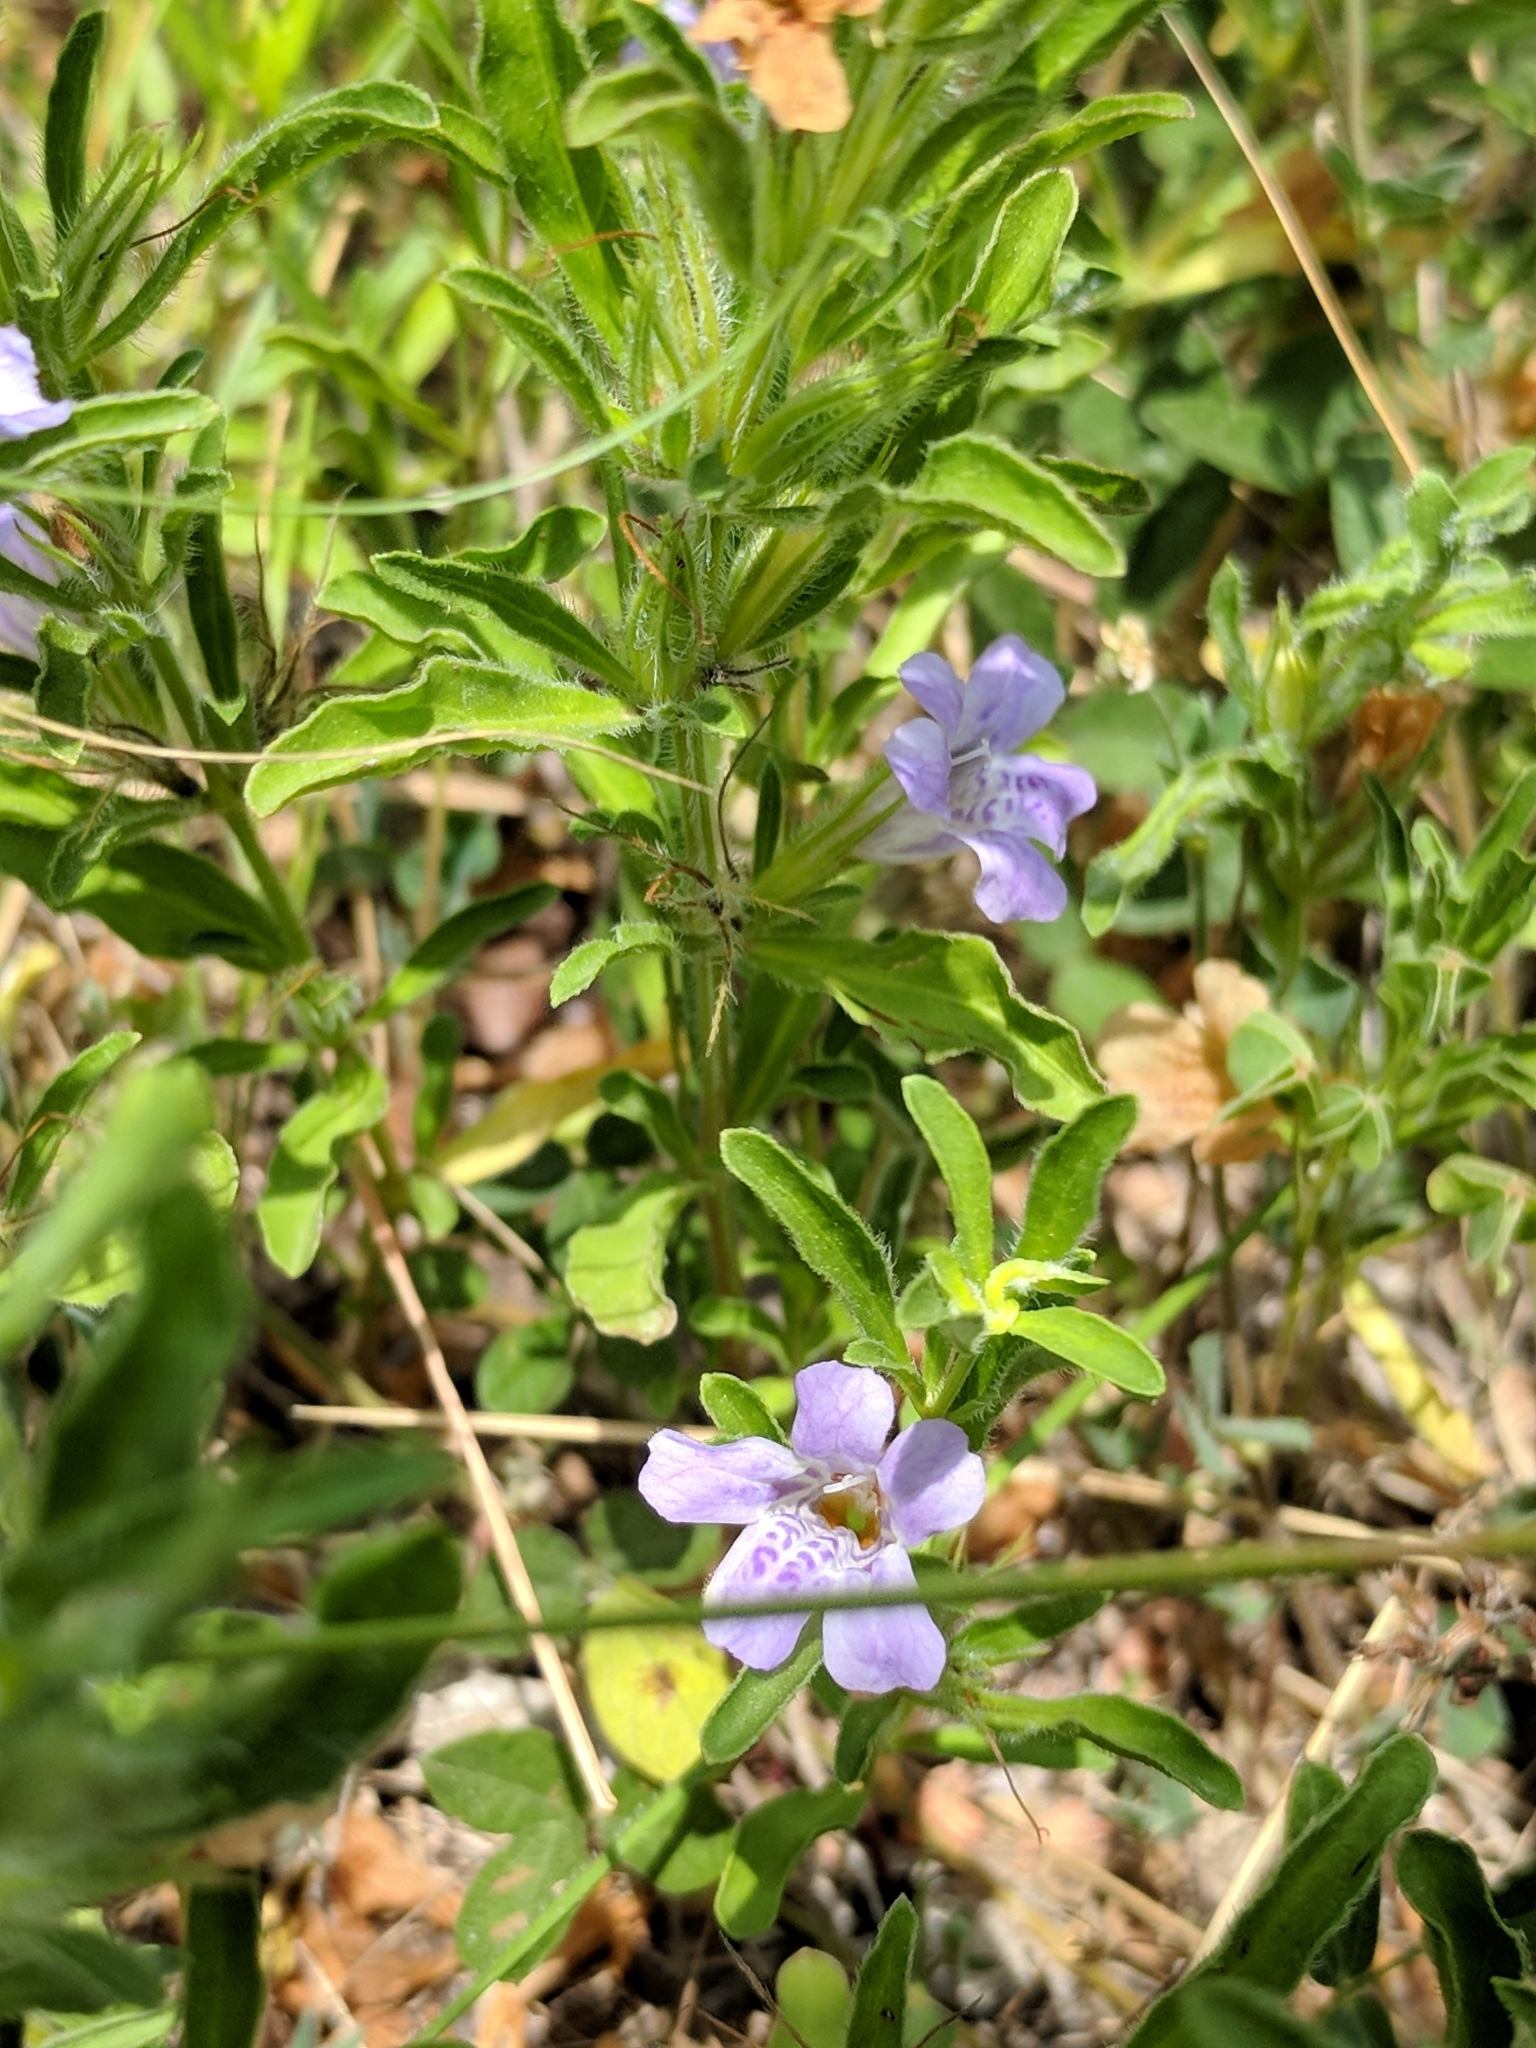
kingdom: Plantae
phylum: Tracheophyta
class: Magnoliopsida
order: Lamiales
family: Acanthaceae
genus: Dyschoriste
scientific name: Dyschoriste linearis
